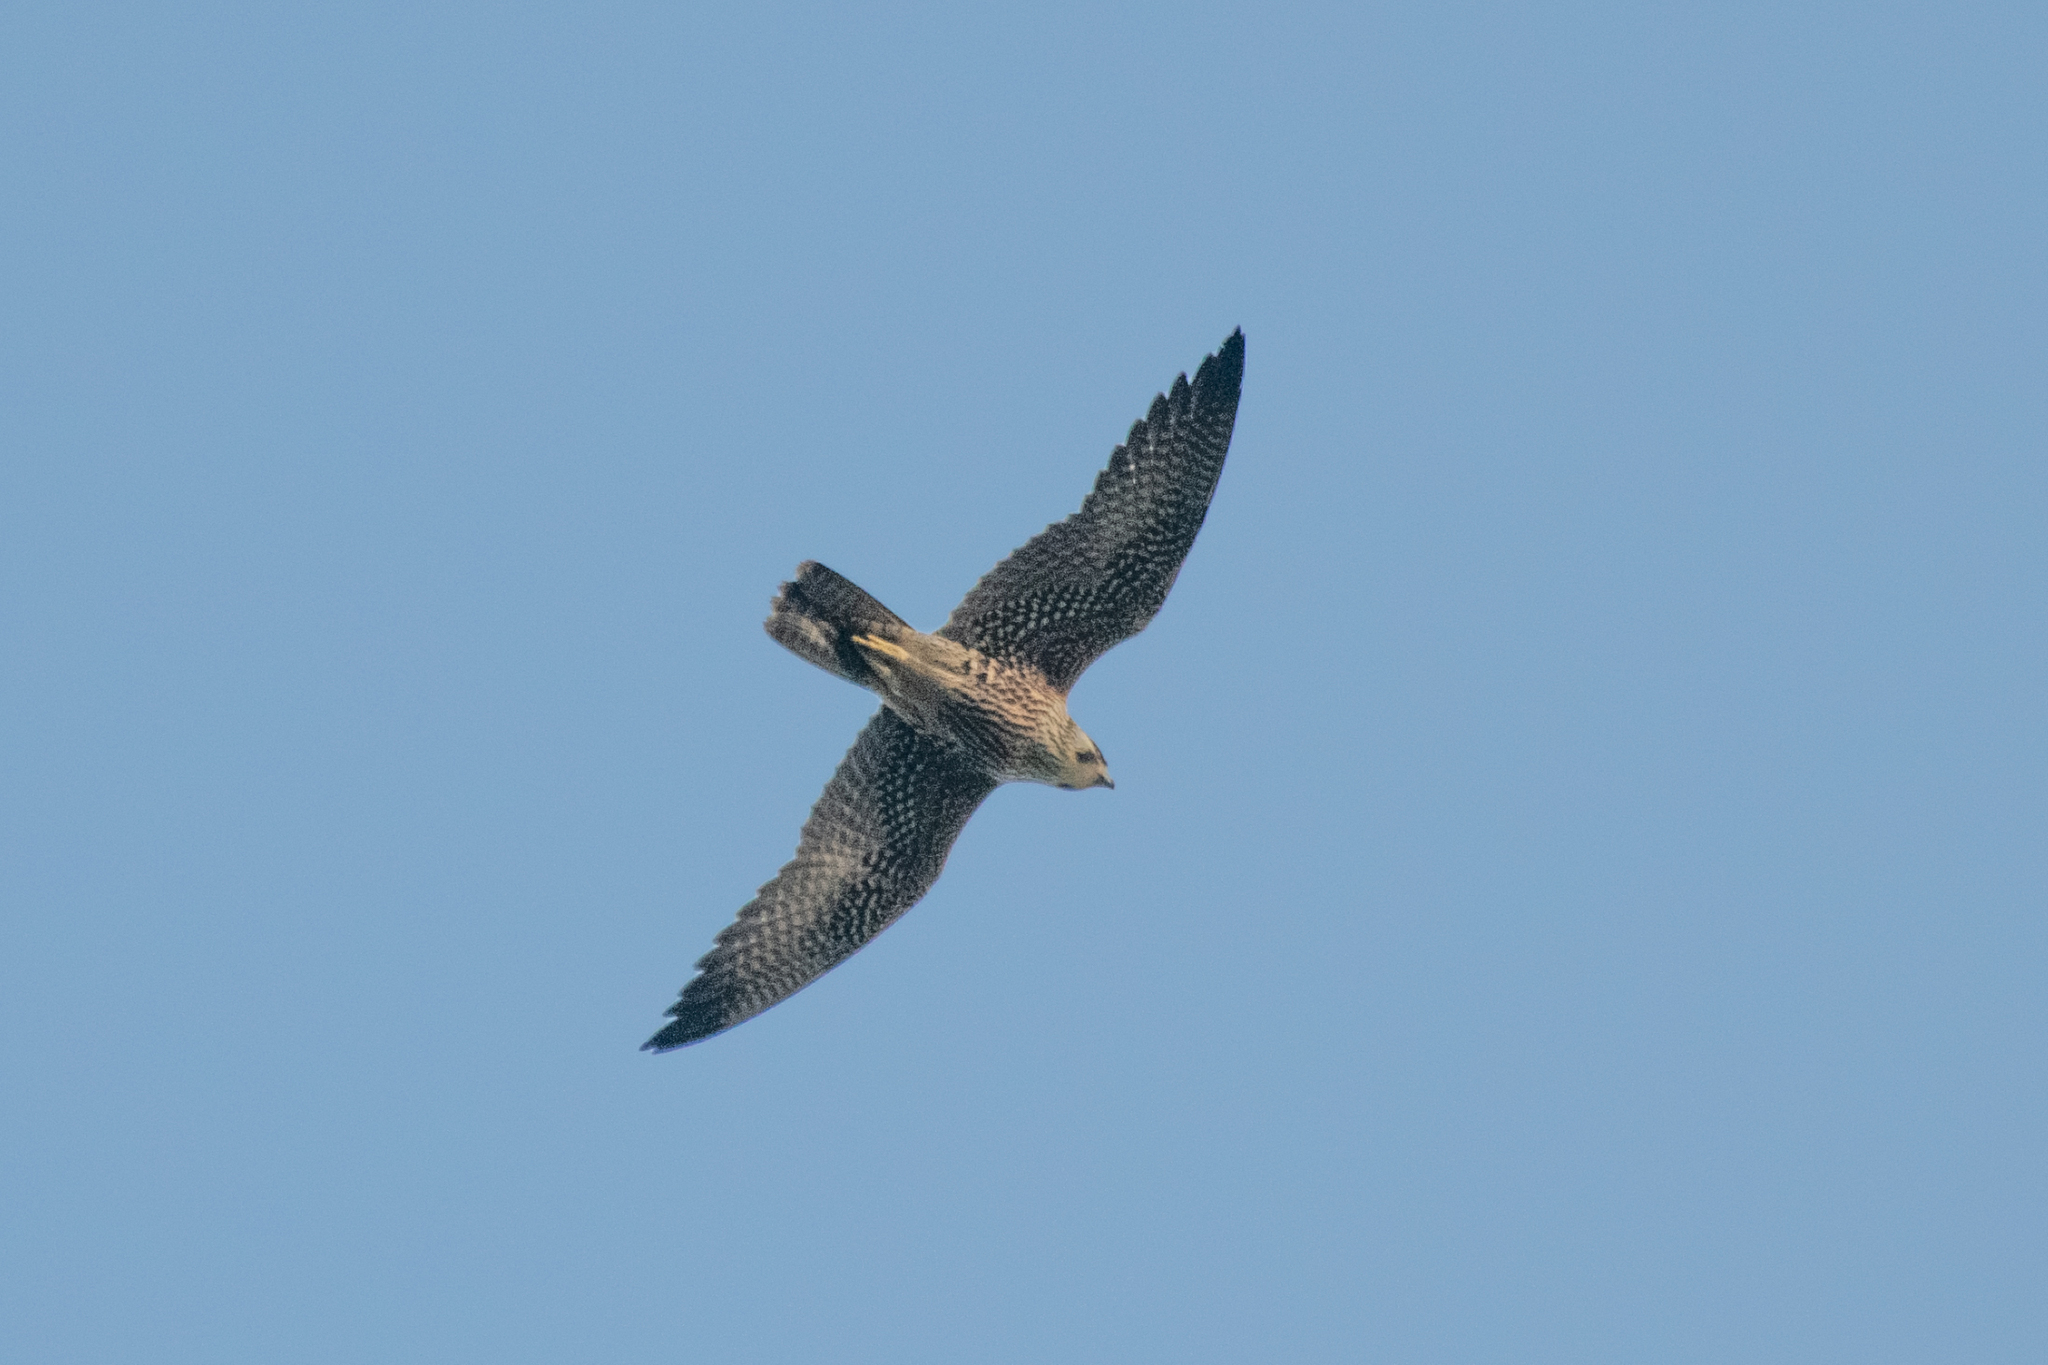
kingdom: Animalia
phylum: Chordata
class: Aves
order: Falconiformes
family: Falconidae
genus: Falco
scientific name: Falco peregrinus
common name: Peregrine falcon
